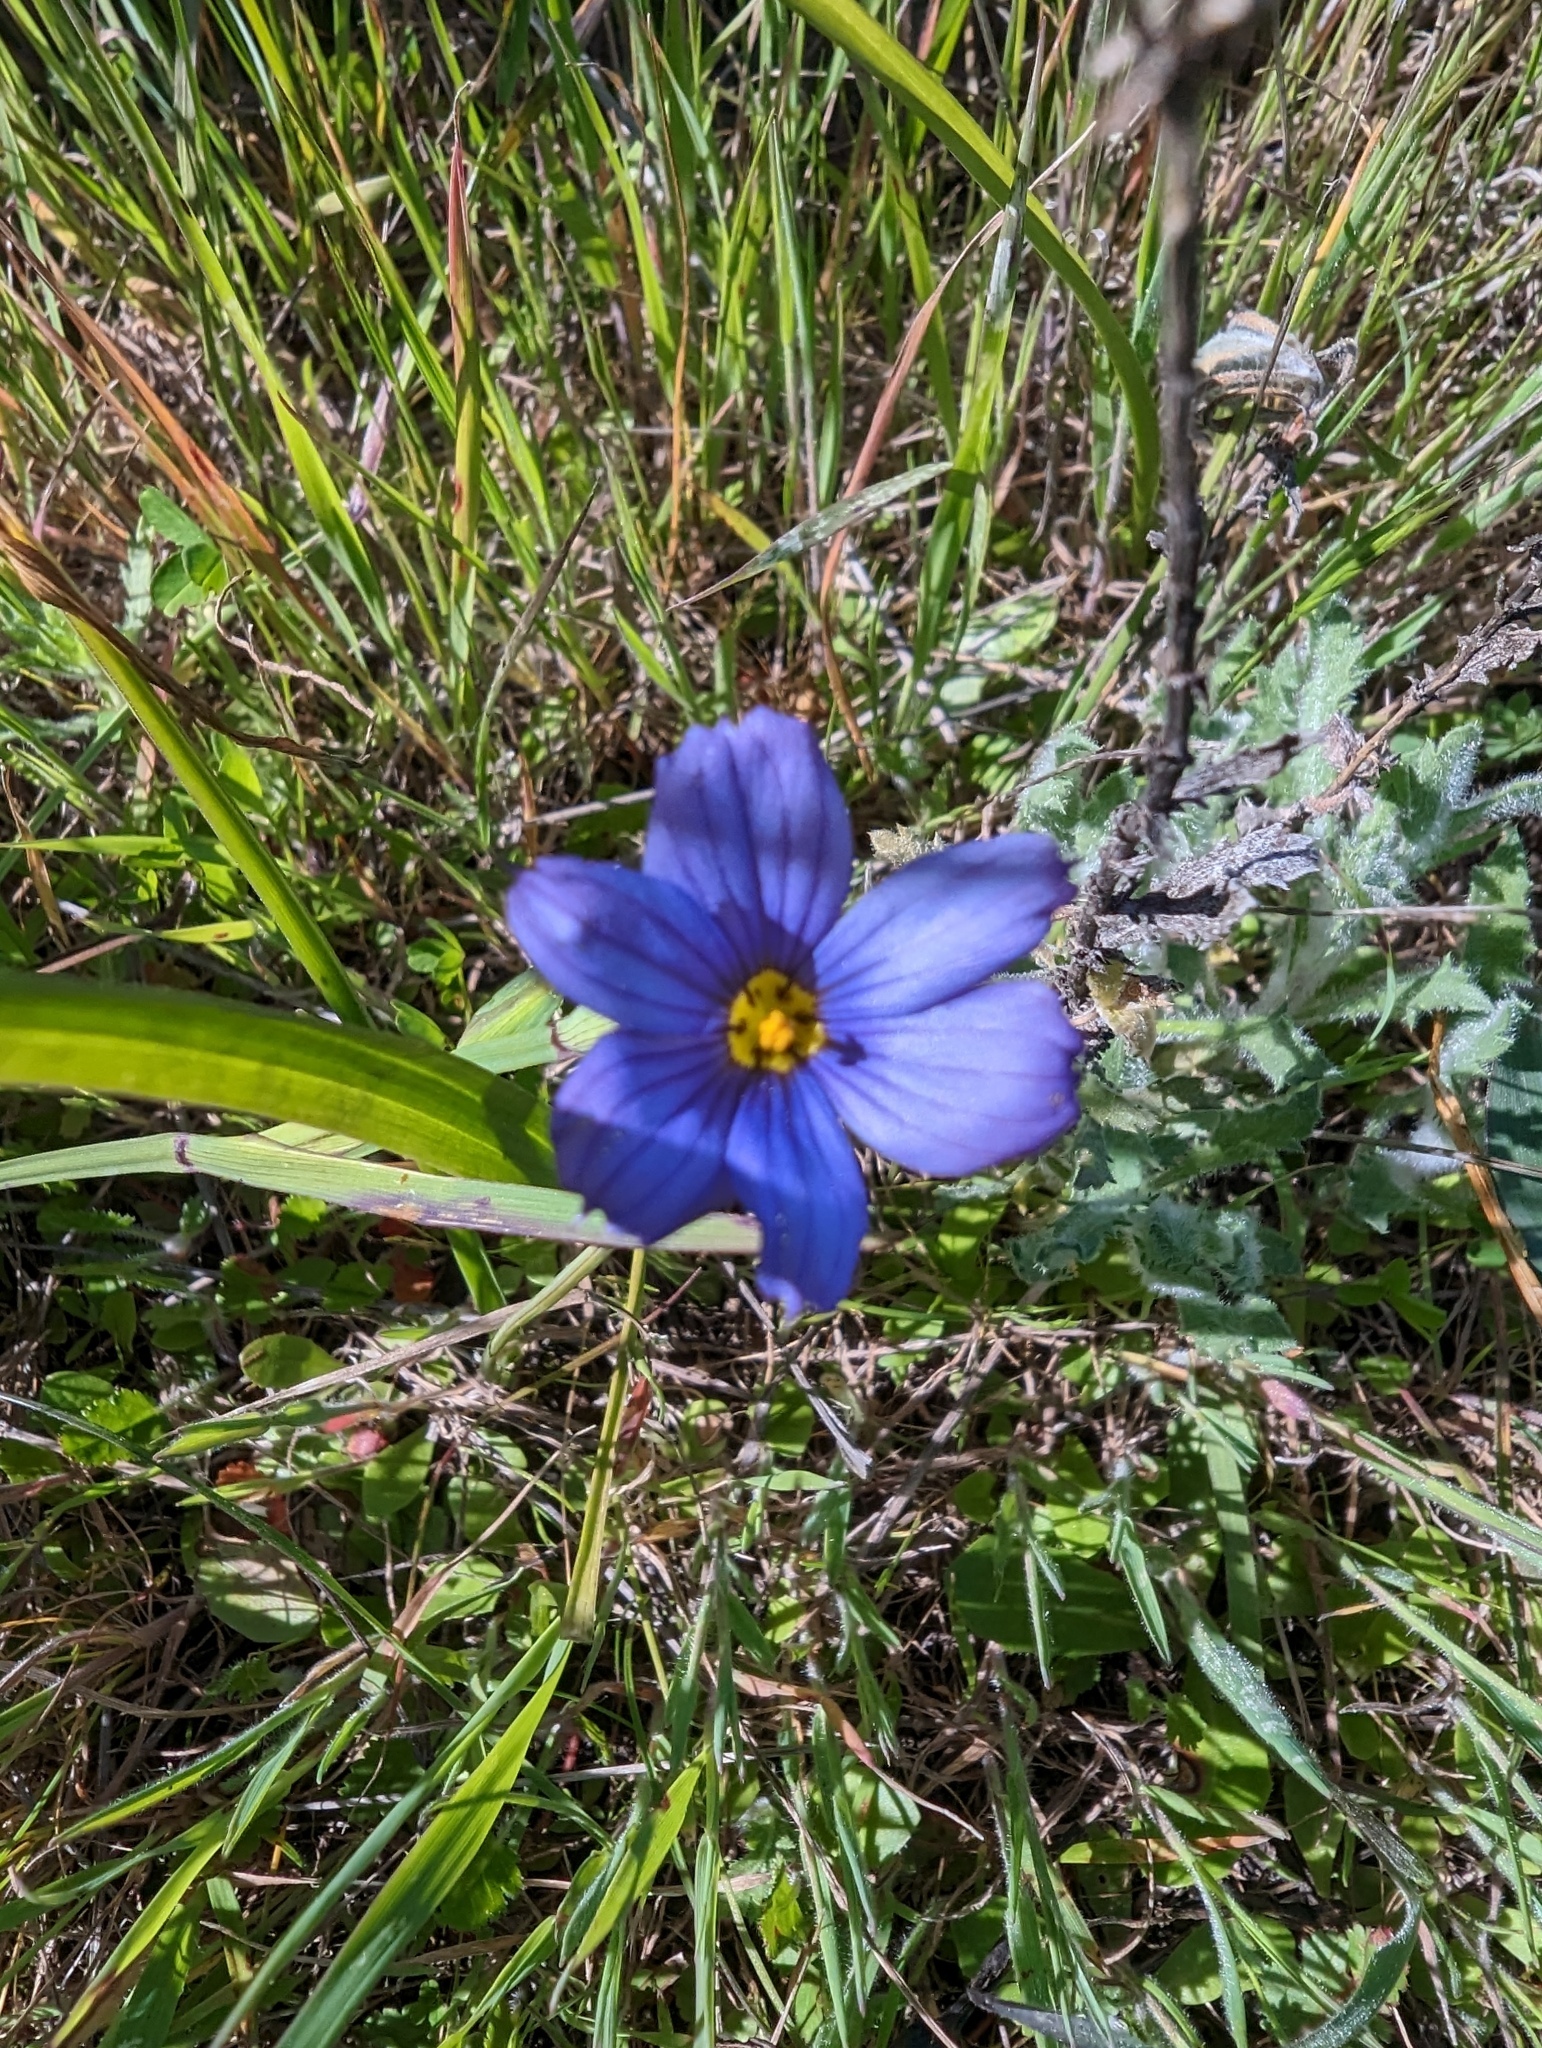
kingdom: Plantae
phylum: Tracheophyta
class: Liliopsida
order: Asparagales
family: Iridaceae
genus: Sisyrinchium
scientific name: Sisyrinchium bellum
